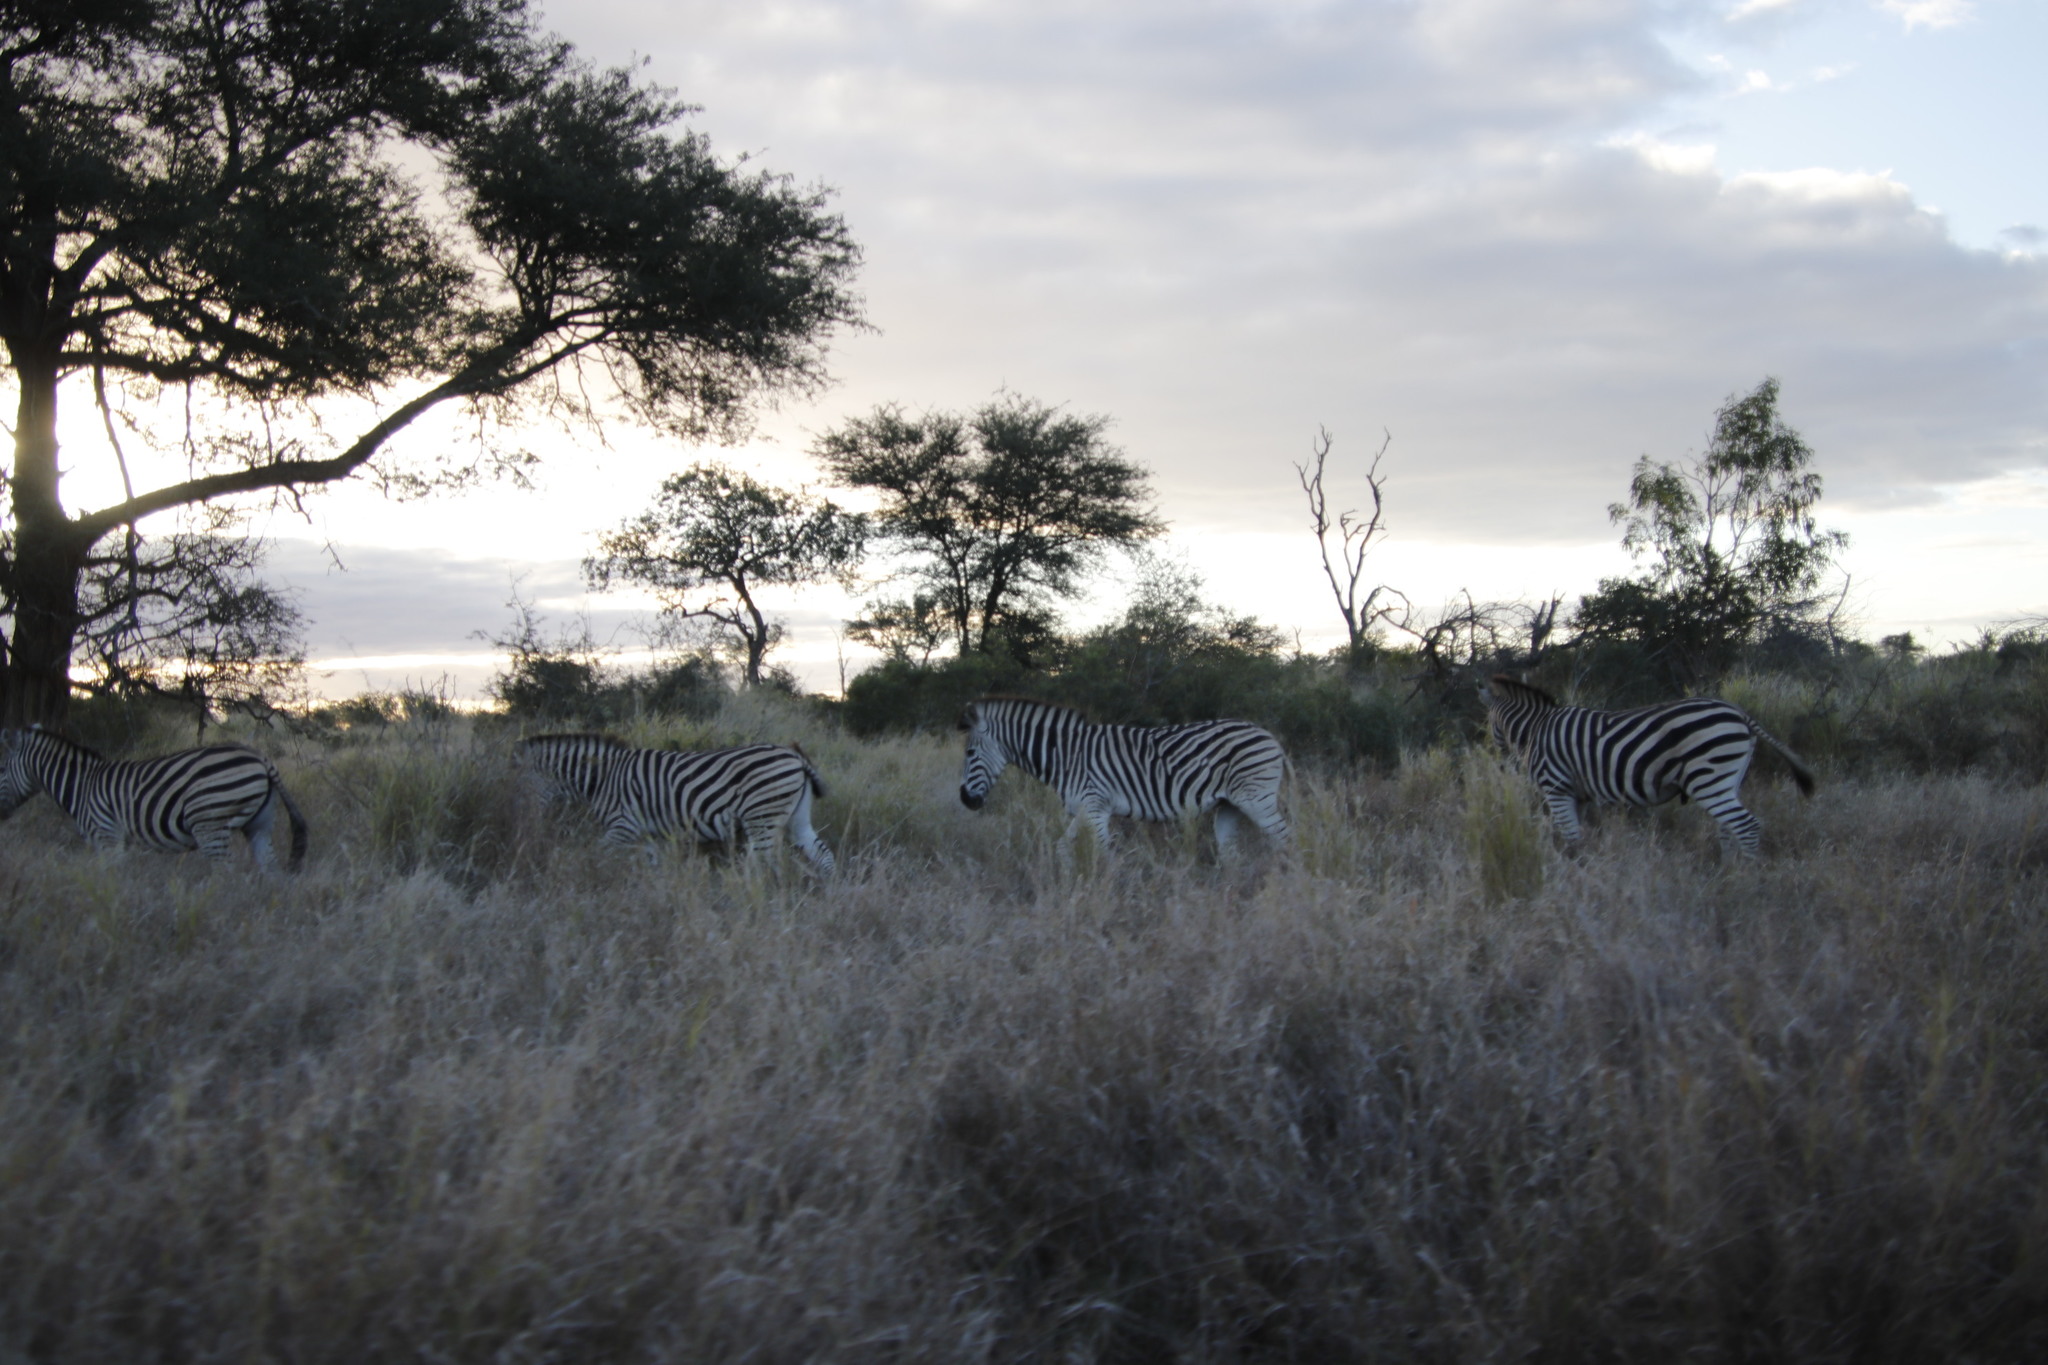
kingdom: Animalia
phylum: Chordata
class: Mammalia
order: Perissodactyla
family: Equidae
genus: Equus
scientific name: Equus quagga
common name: Plains zebra
